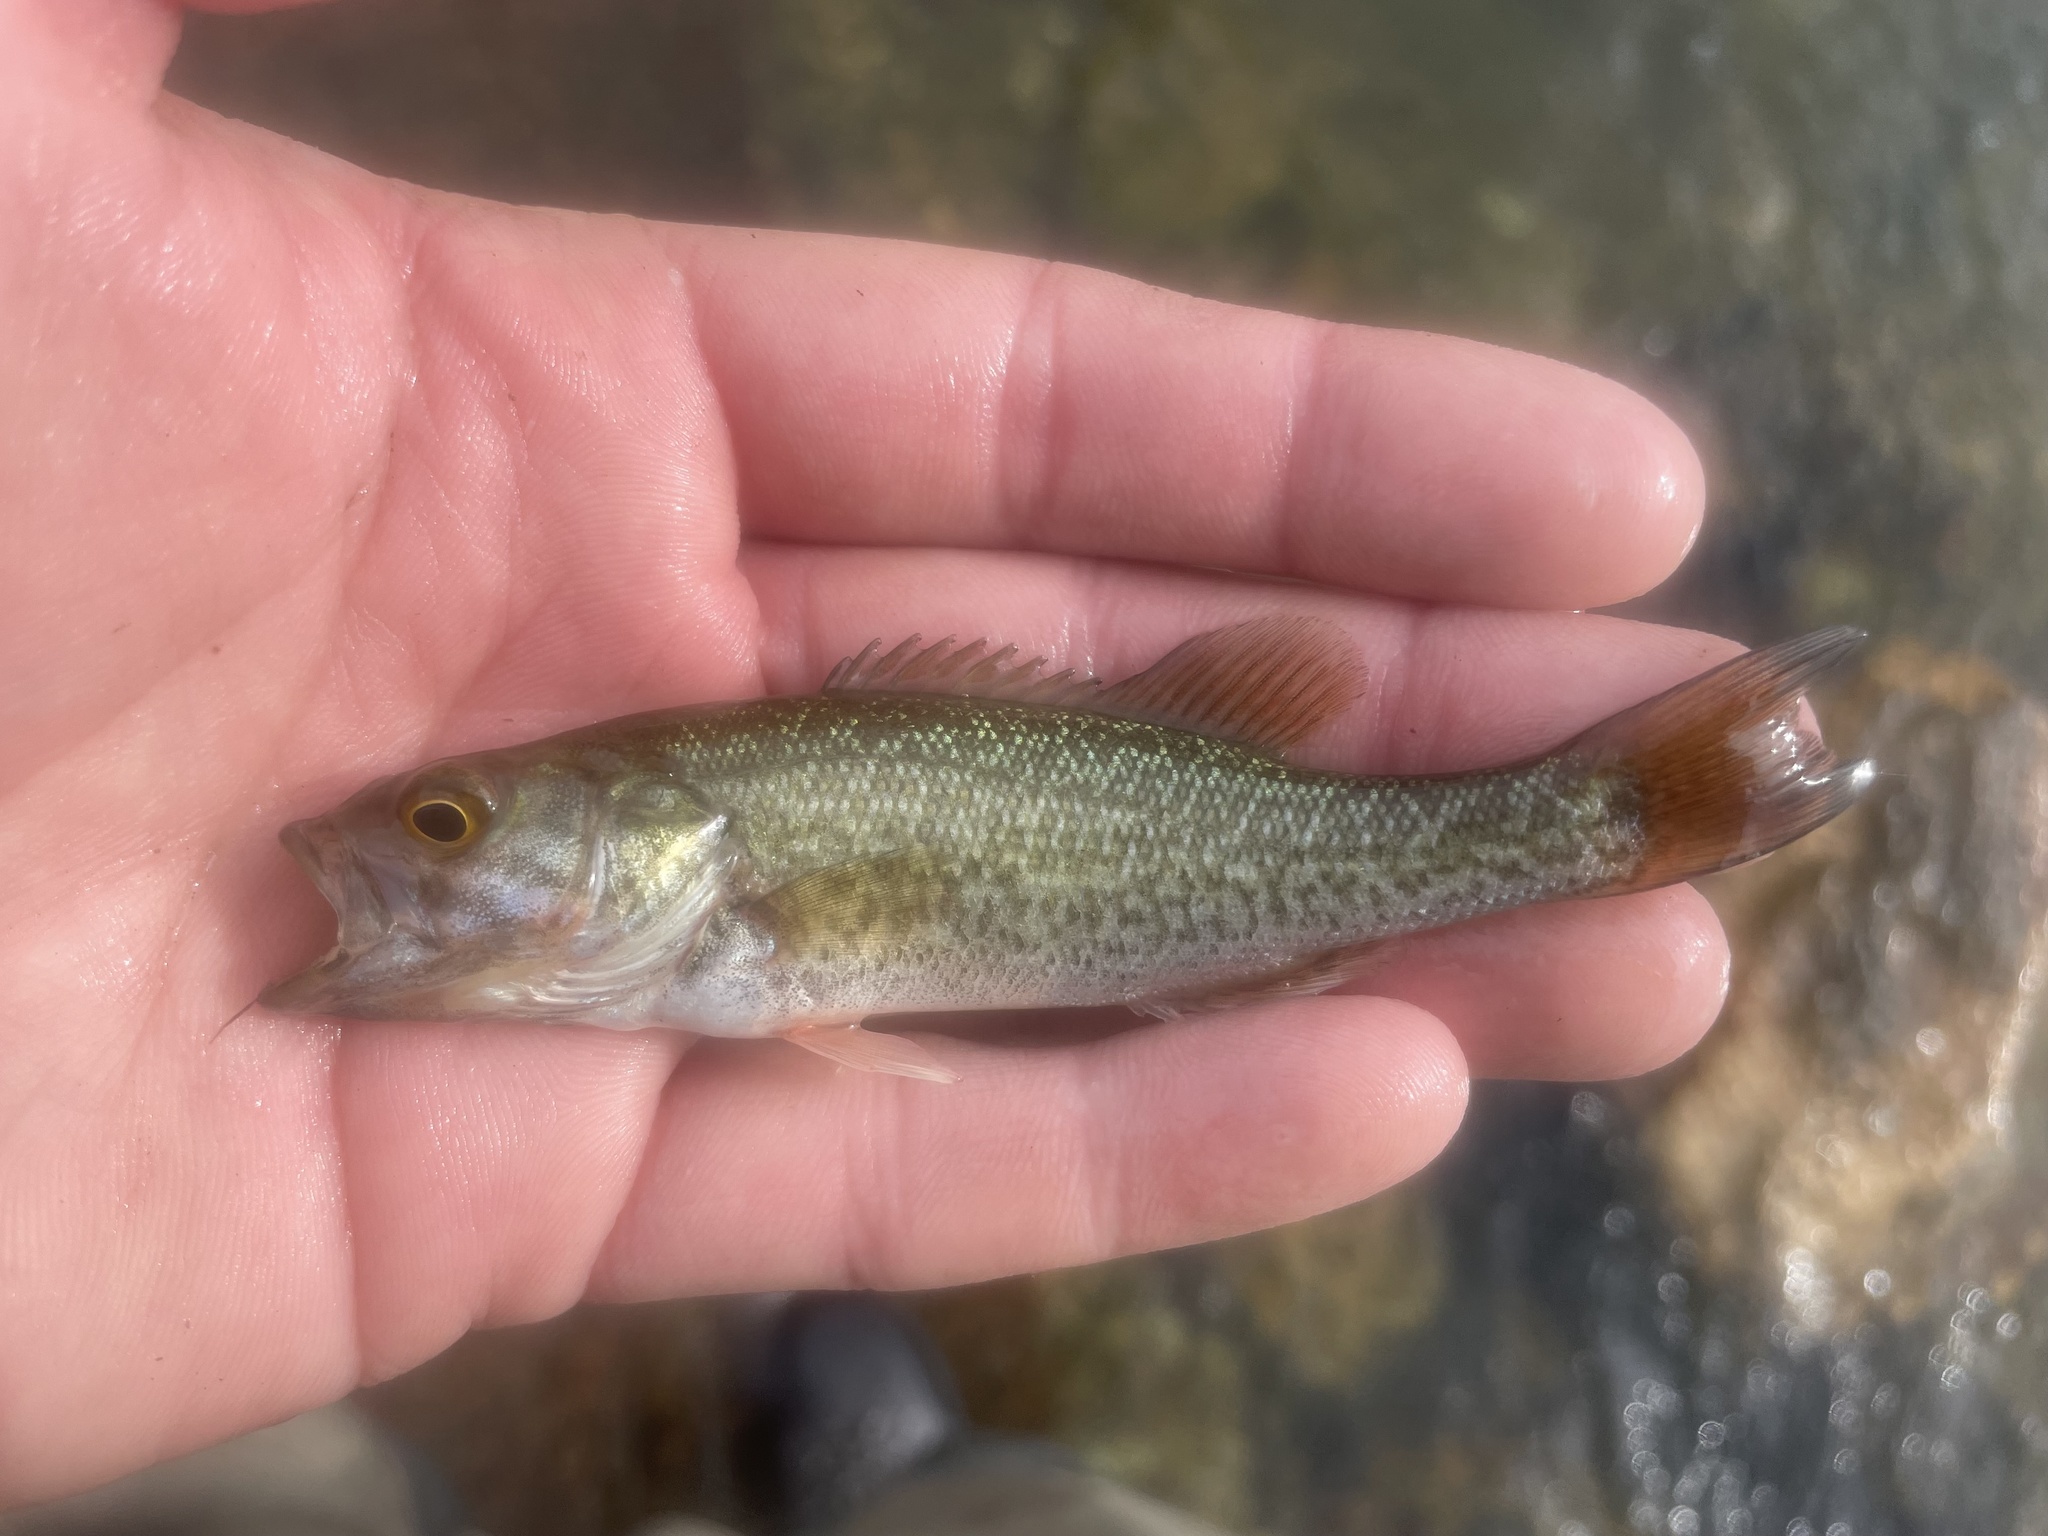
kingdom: Animalia
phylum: Chordata
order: Perciformes
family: Centrarchidae
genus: Micropterus
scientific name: Micropterus treculii
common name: Guadalupe bass
